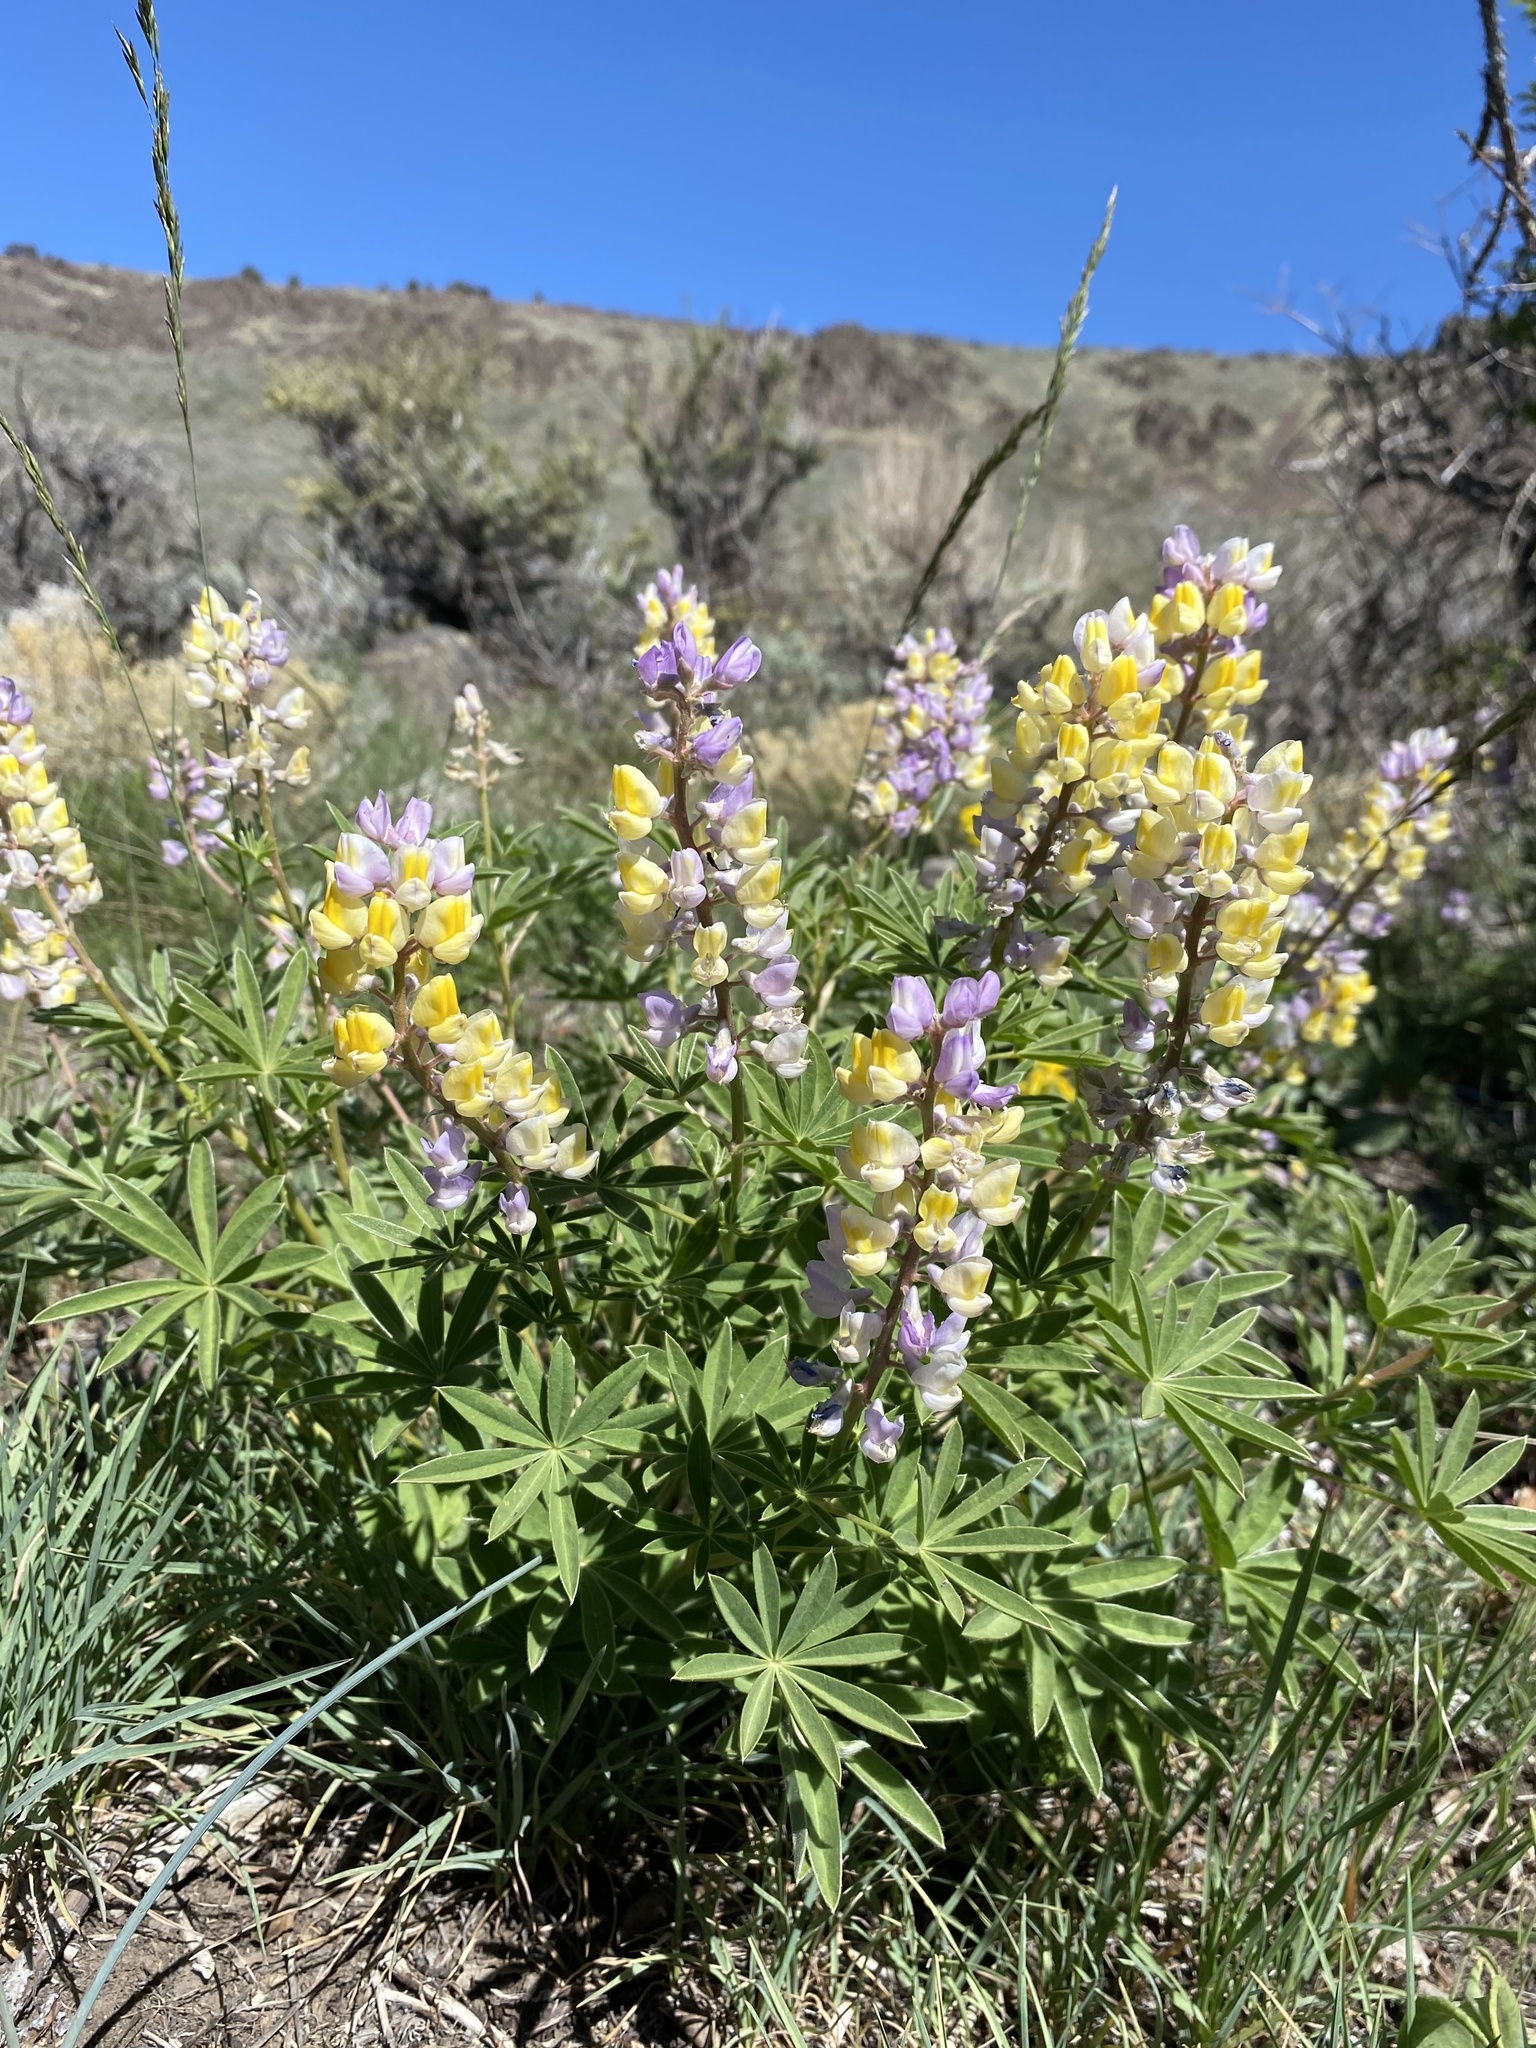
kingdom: Plantae
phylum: Tracheophyta
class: Magnoliopsida
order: Fabales
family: Fabaceae
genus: Lupinus
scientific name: Lupinus arbustus
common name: Montana lupine
